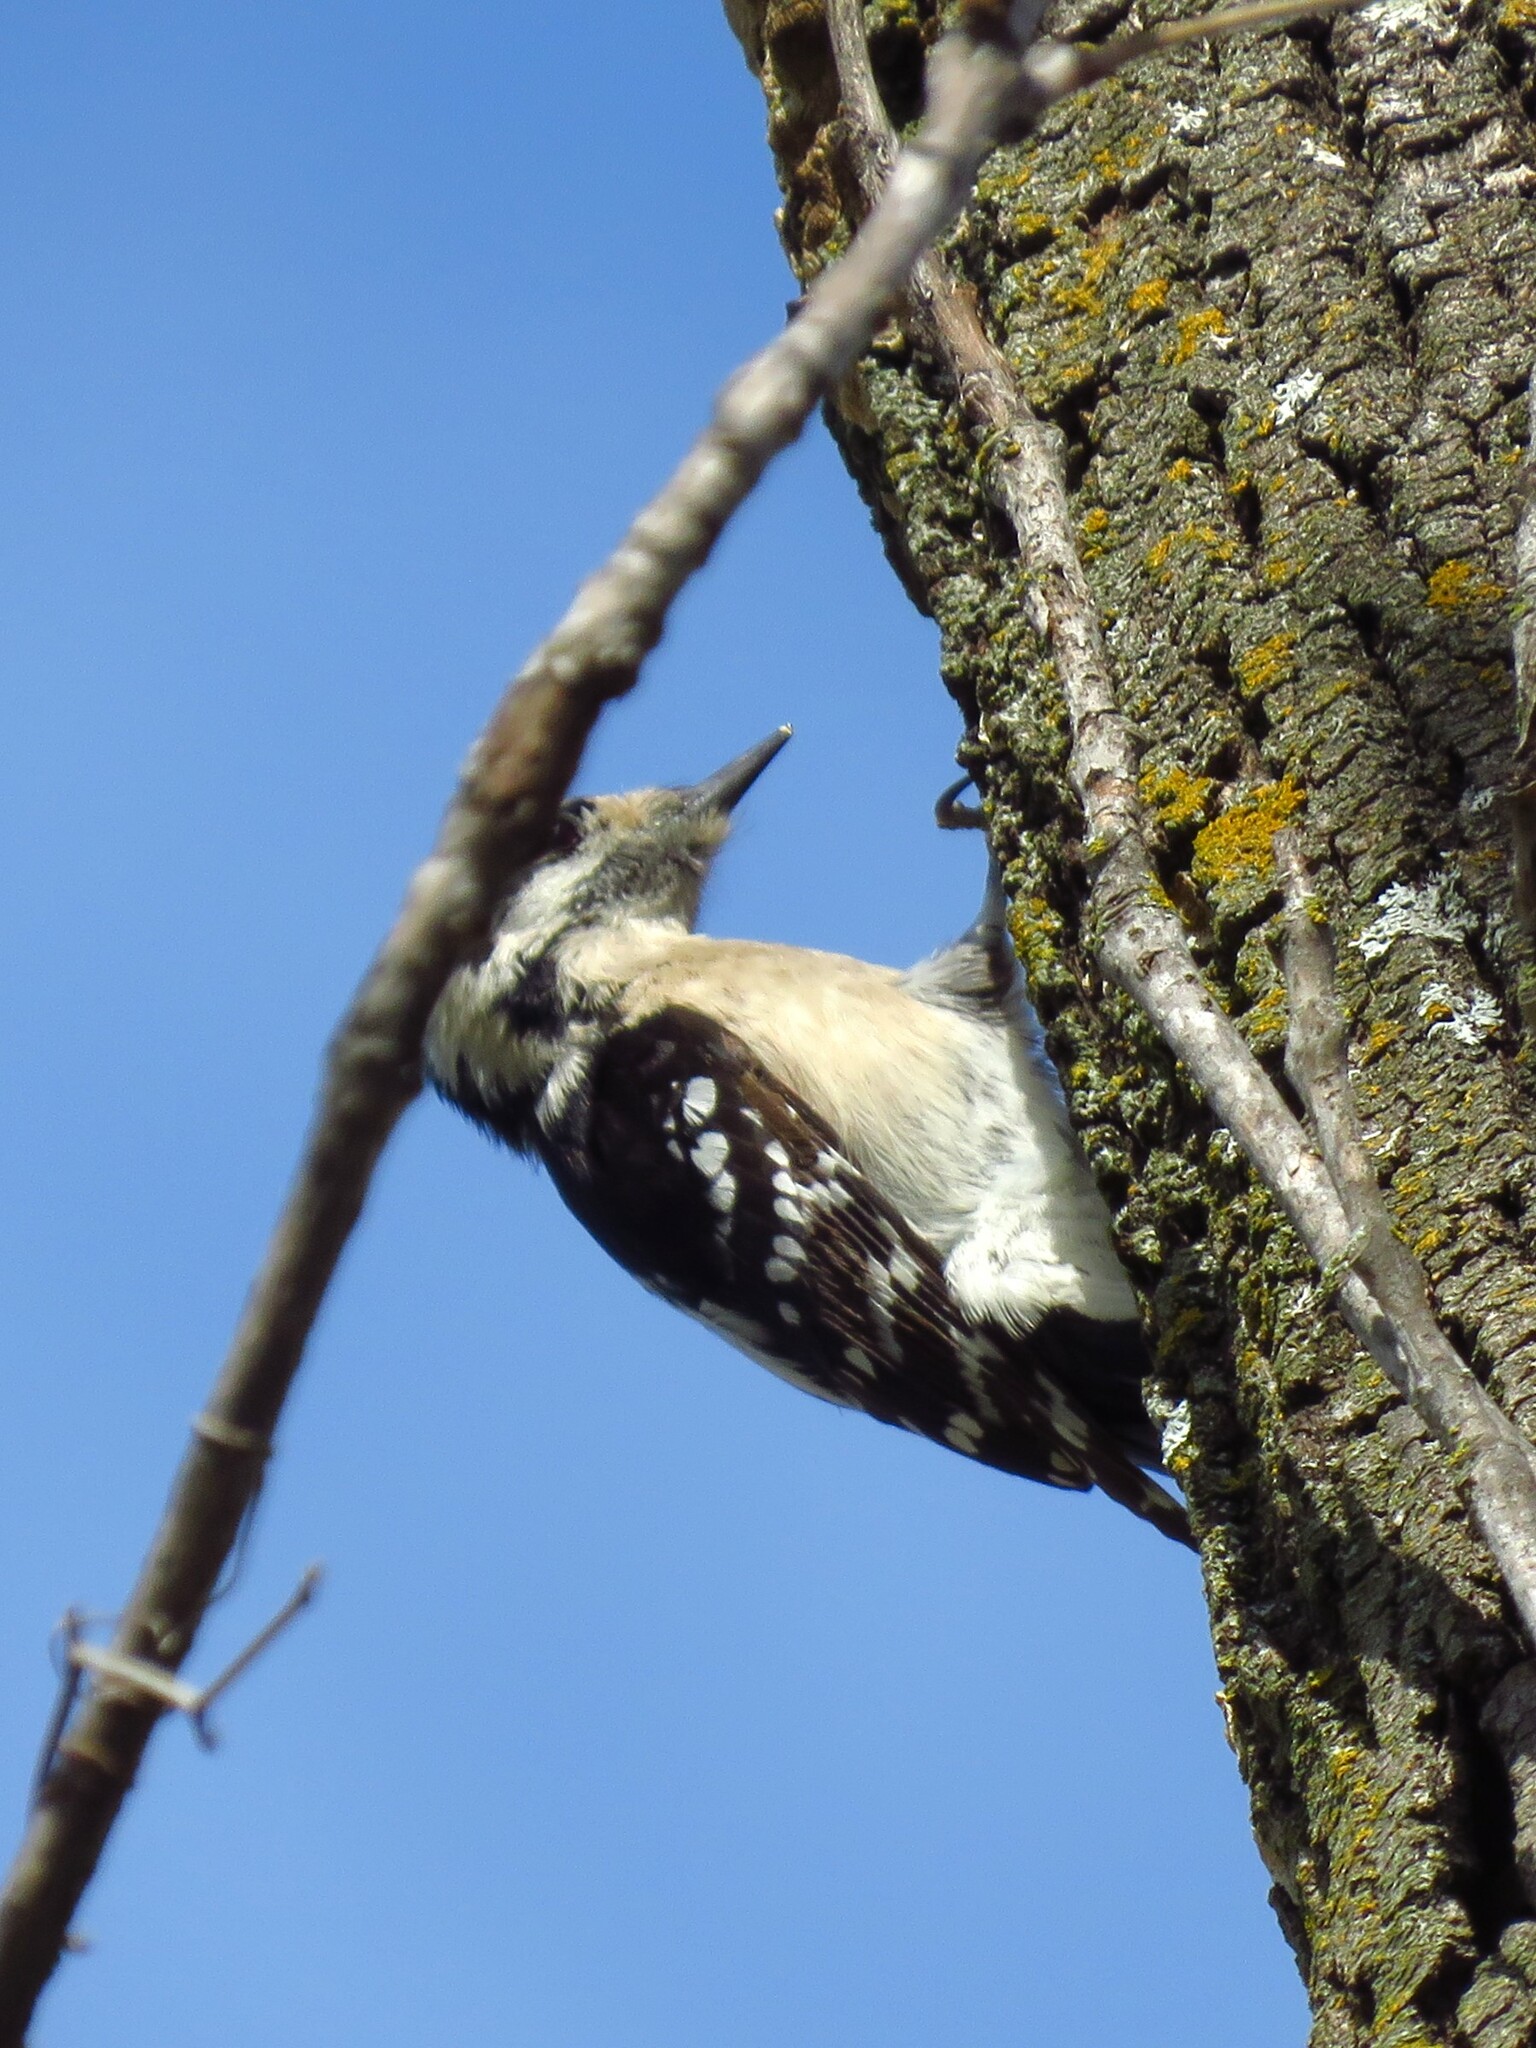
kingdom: Animalia
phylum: Chordata
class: Aves
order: Piciformes
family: Picidae
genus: Dryobates
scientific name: Dryobates pubescens
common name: Downy woodpecker
